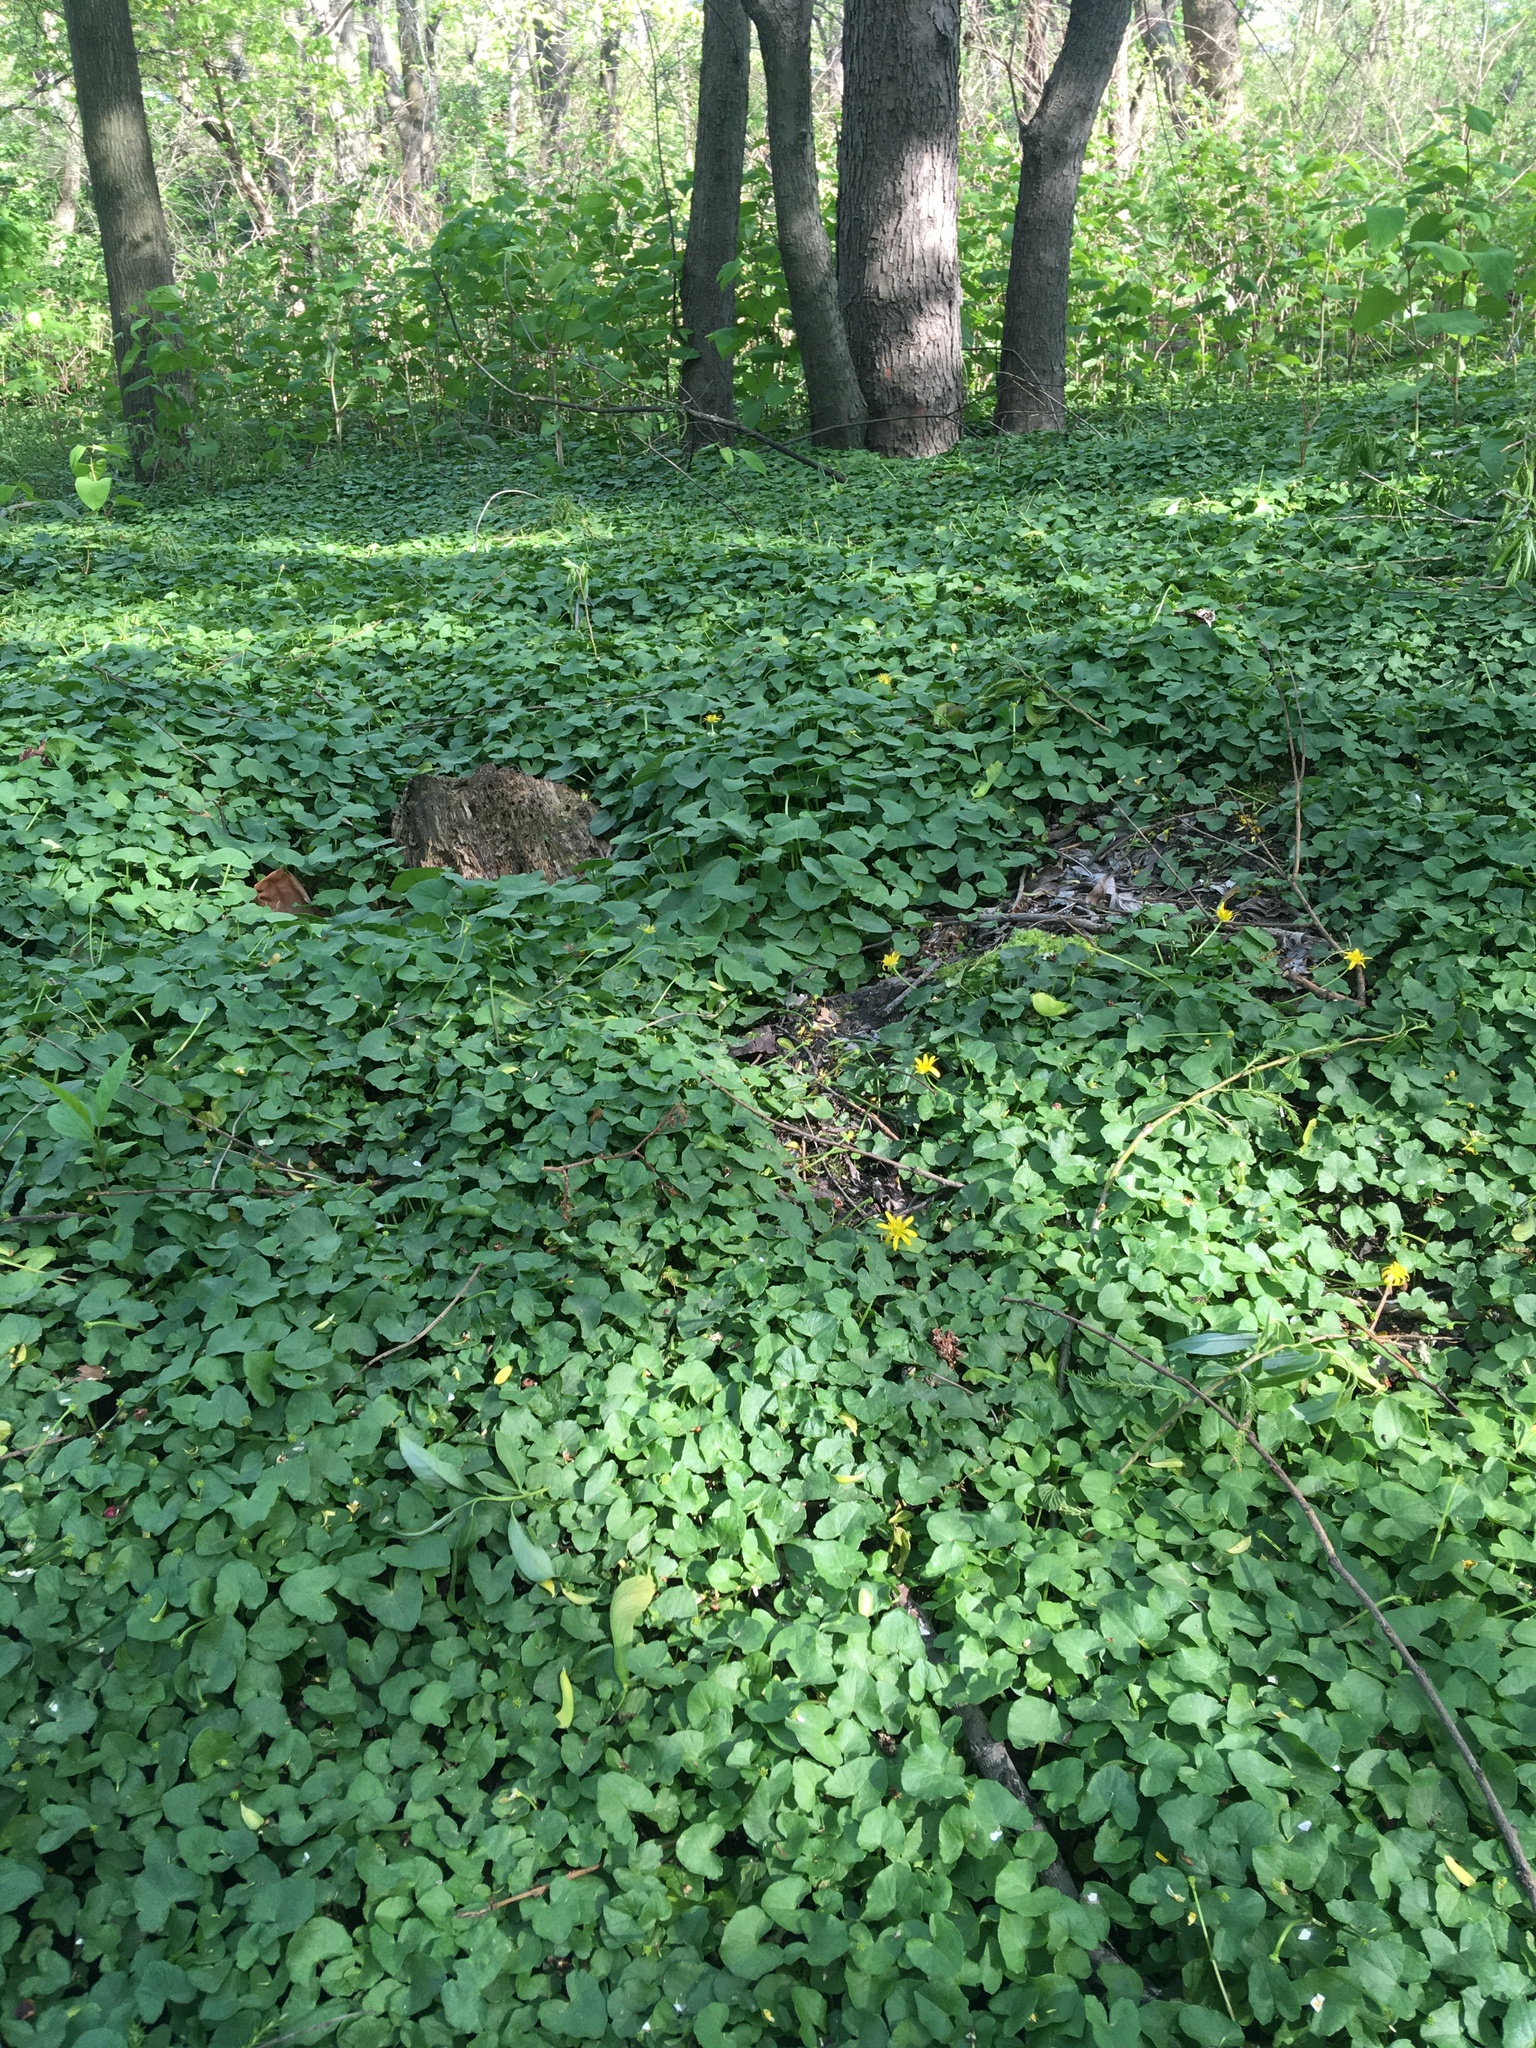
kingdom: Plantae
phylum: Tracheophyta
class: Magnoliopsida
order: Ranunculales
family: Ranunculaceae
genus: Ficaria
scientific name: Ficaria verna
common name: Lesser celandine
